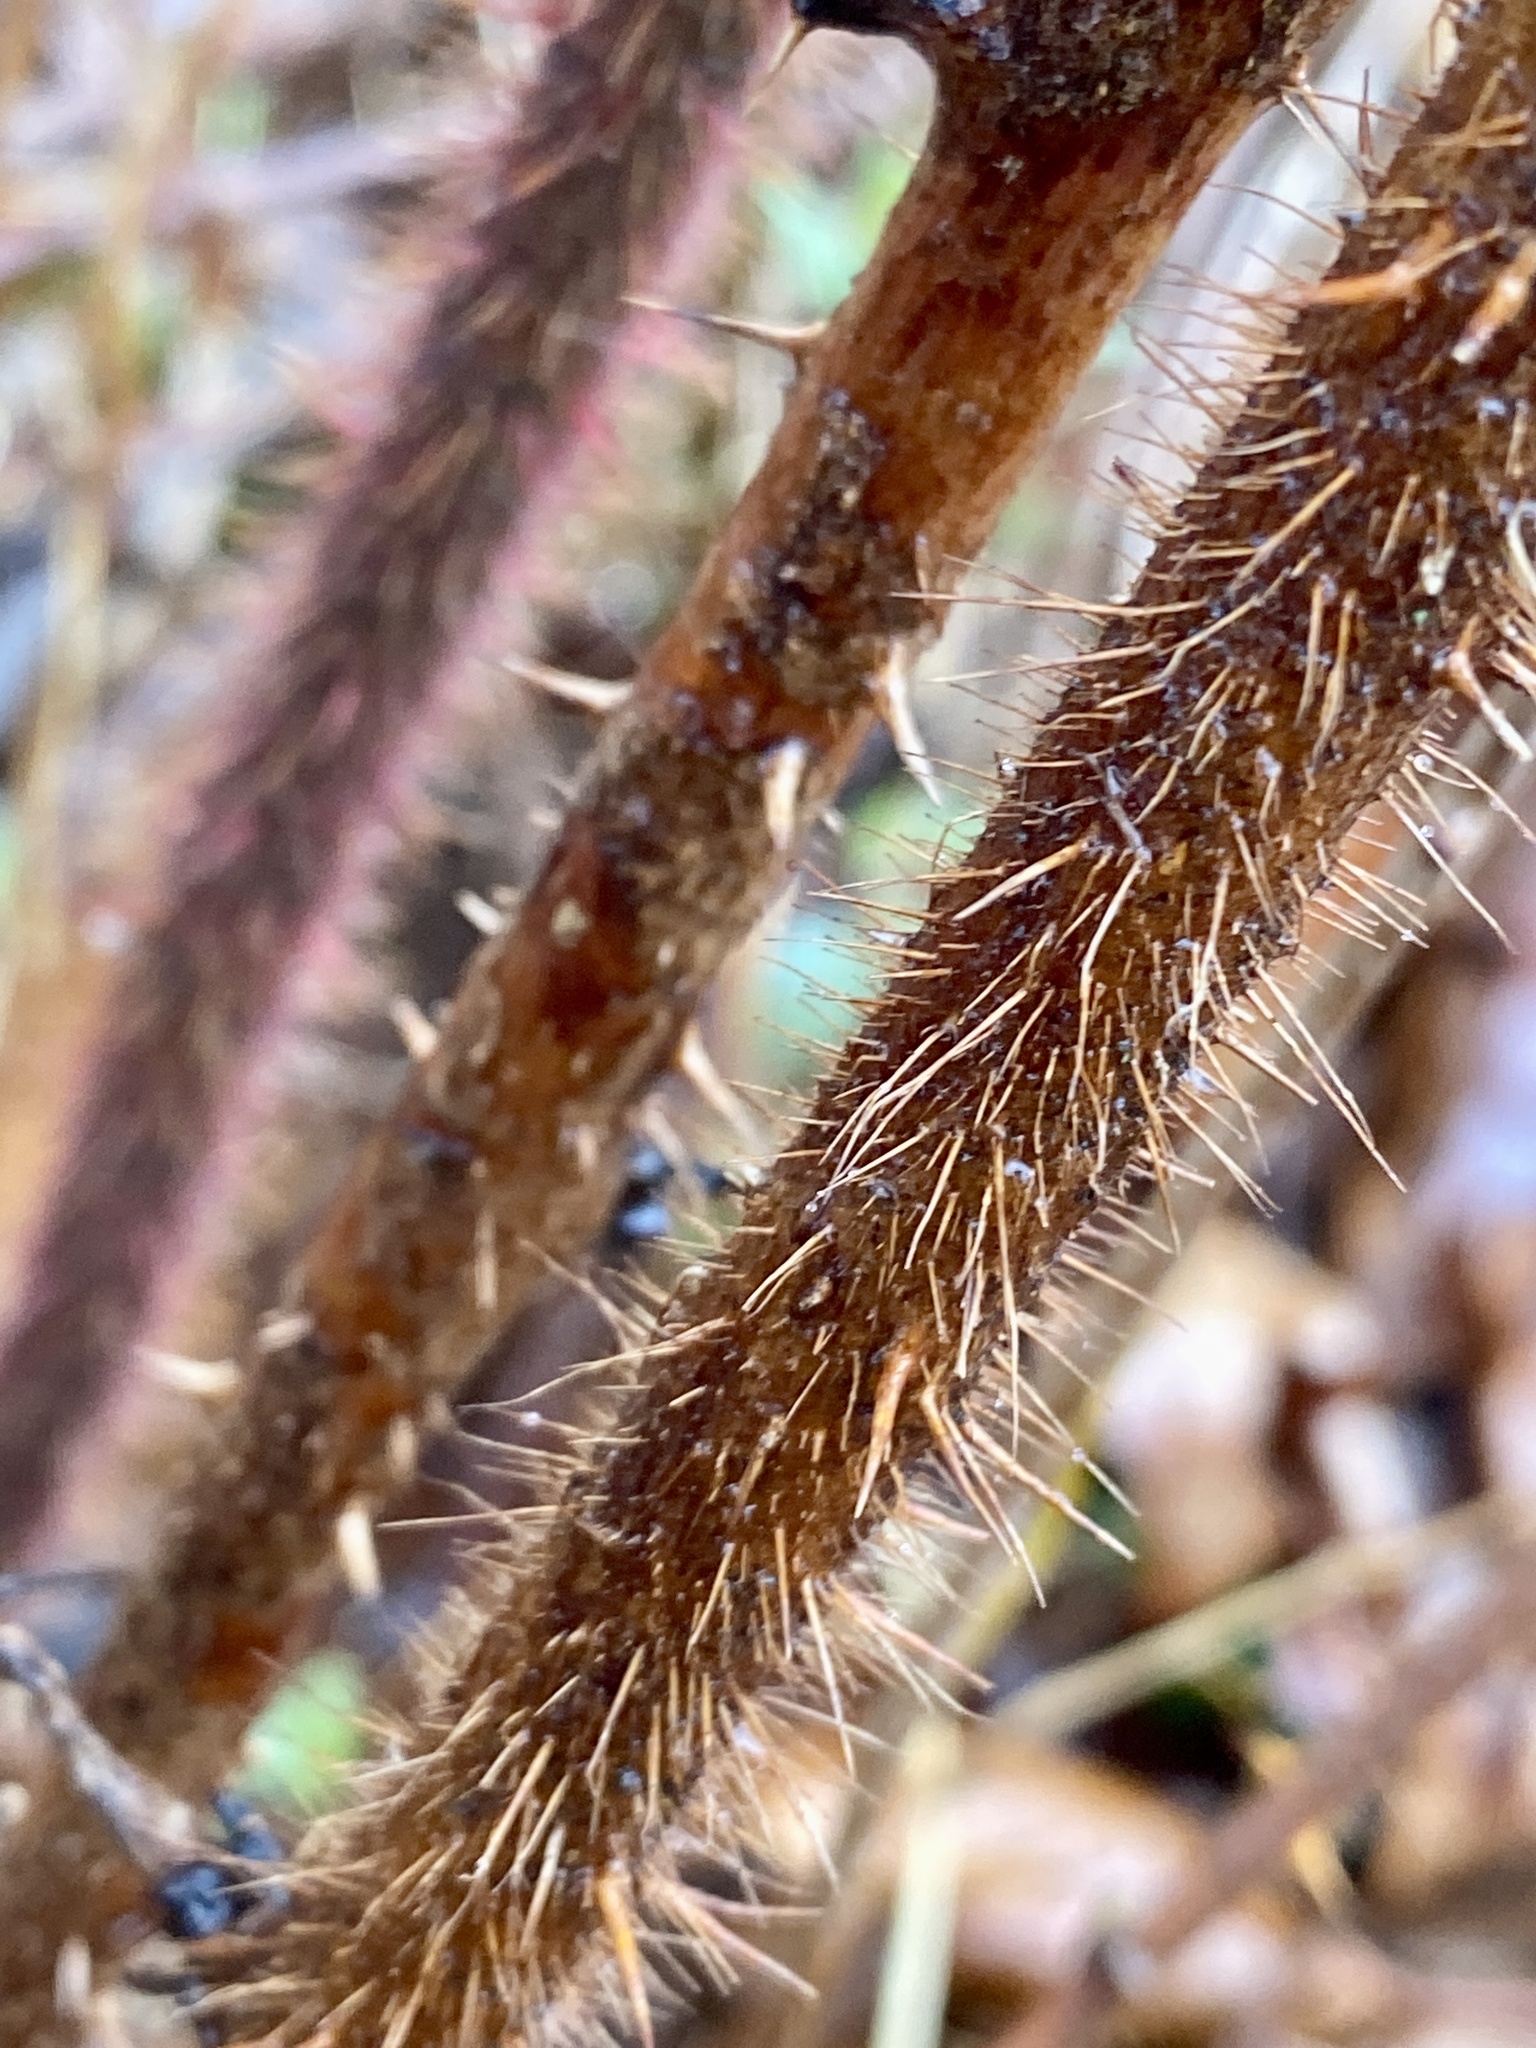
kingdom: Plantae
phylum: Tracheophyta
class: Magnoliopsida
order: Rosales
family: Rosaceae
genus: Rubus
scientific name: Rubus phoenicolasius
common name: Japanese wineberry
